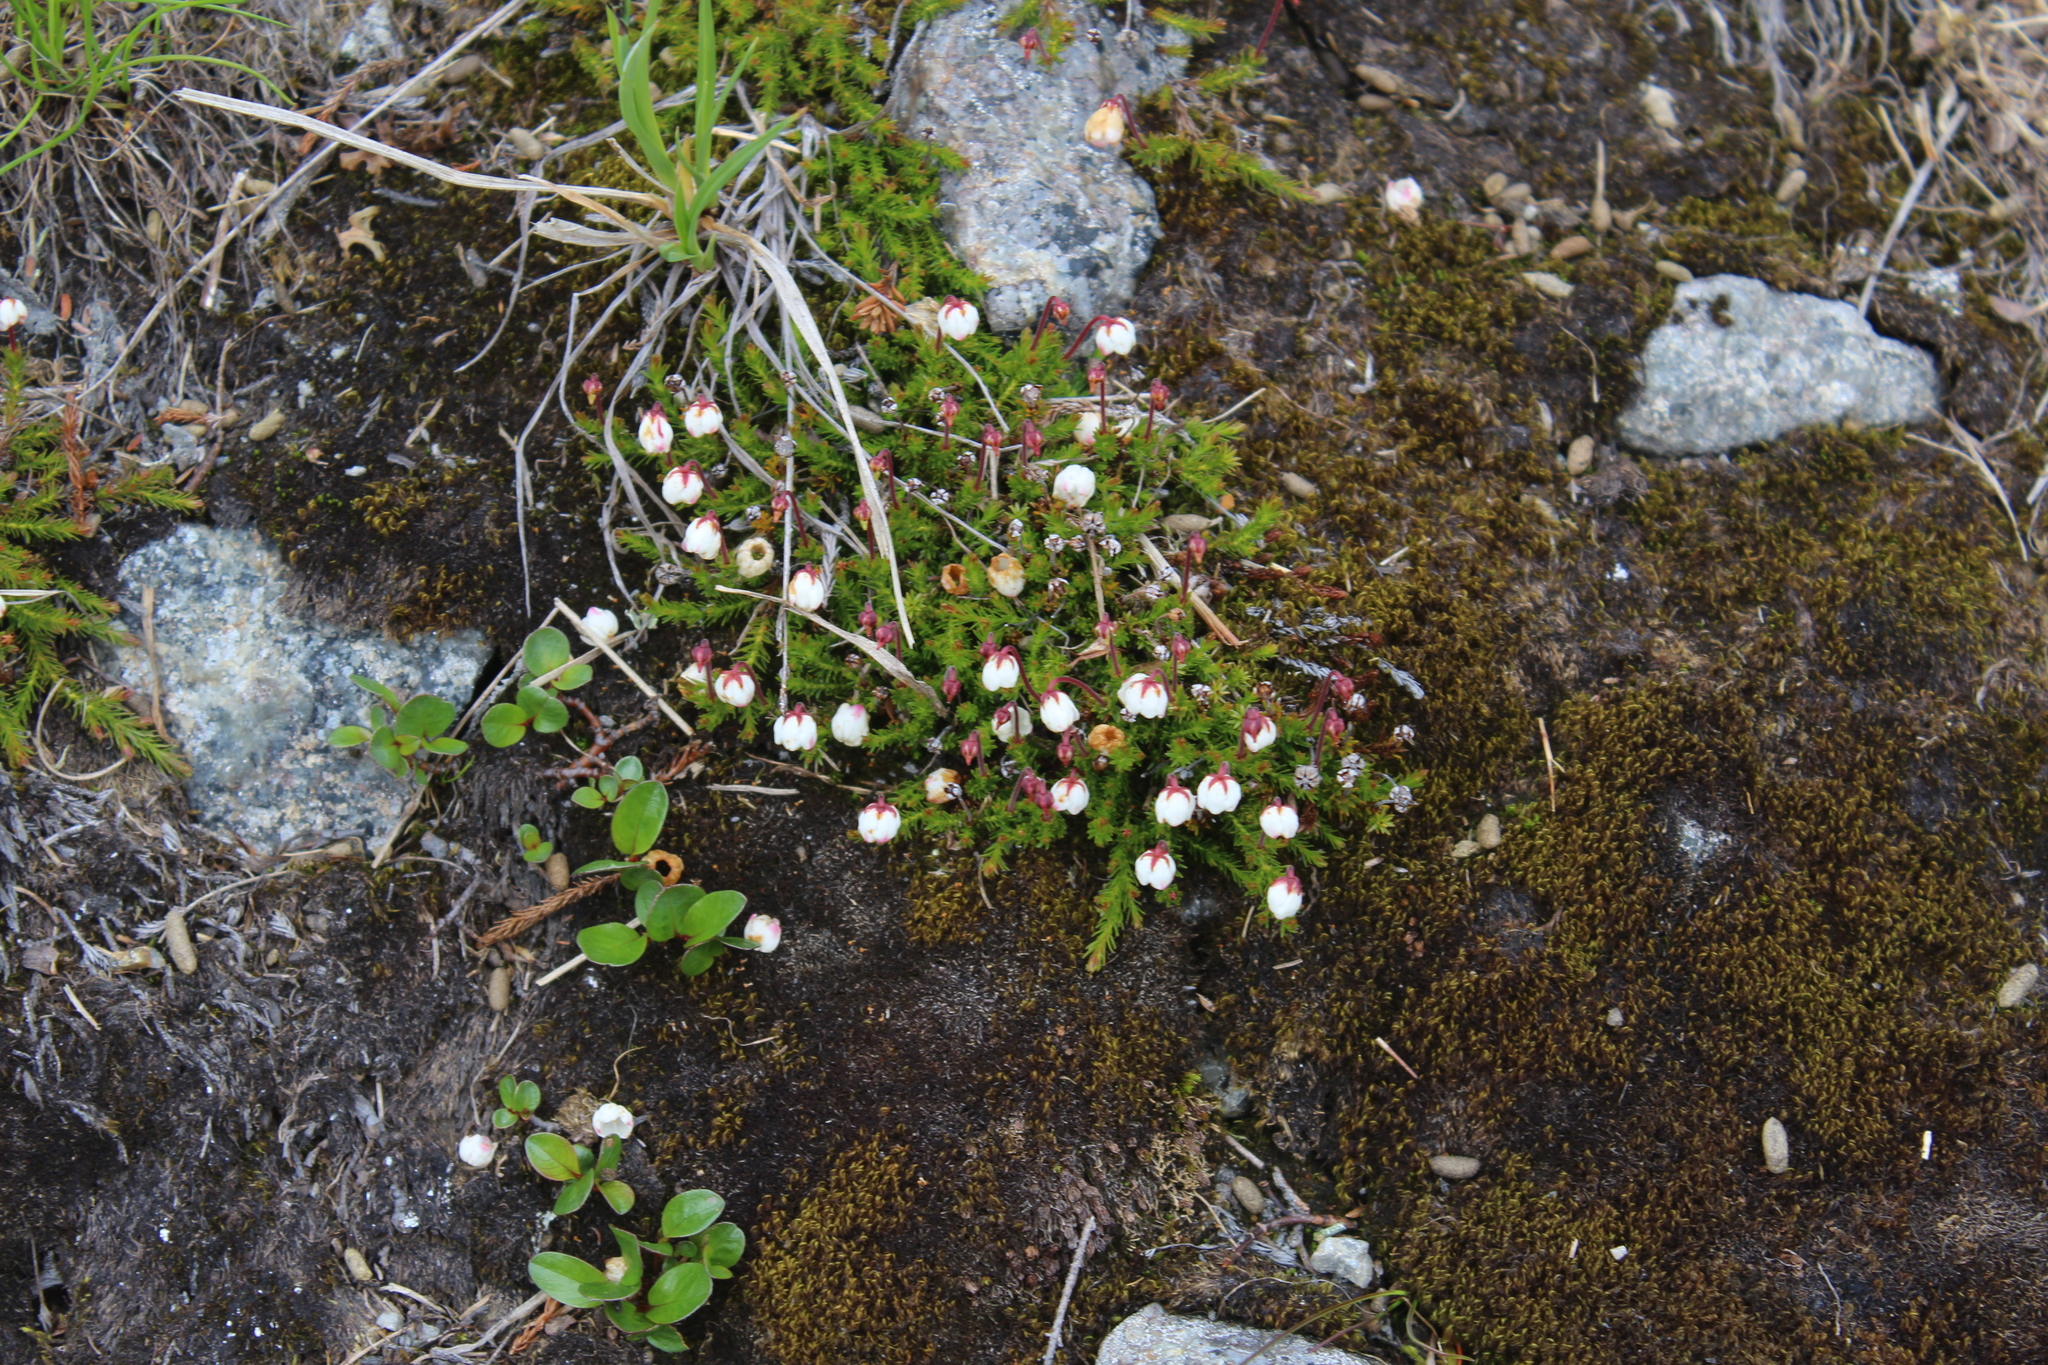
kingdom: Plantae
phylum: Tracheophyta
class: Magnoliopsida
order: Ericales
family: Ericaceae
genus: Harrimanella
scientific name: Harrimanella hypnoides
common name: Moss bell heather
